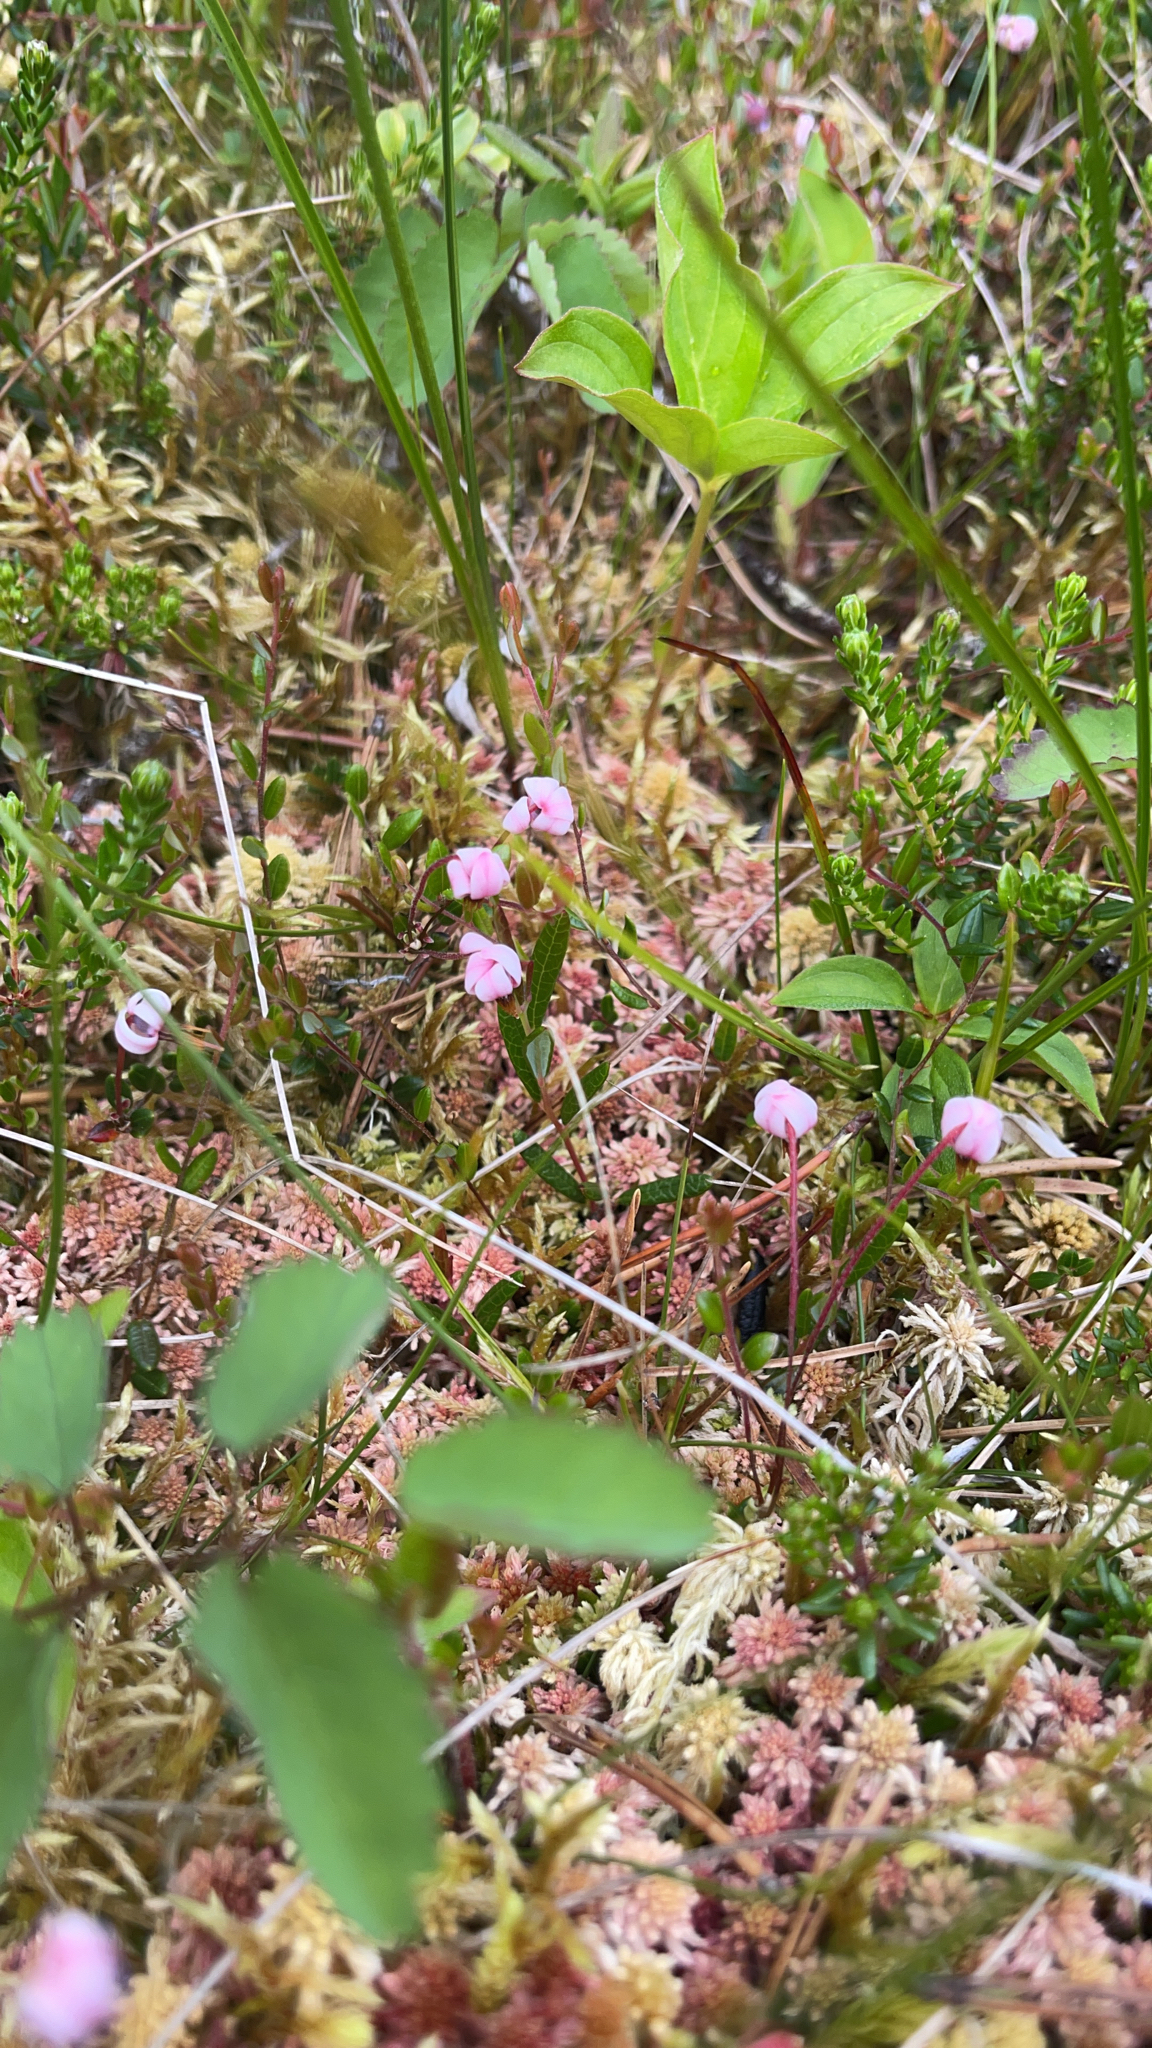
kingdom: Plantae
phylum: Tracheophyta
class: Magnoliopsida
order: Ericales
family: Ericaceae
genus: Vaccinium
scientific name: Vaccinium oxycoccos
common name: Cranberry
